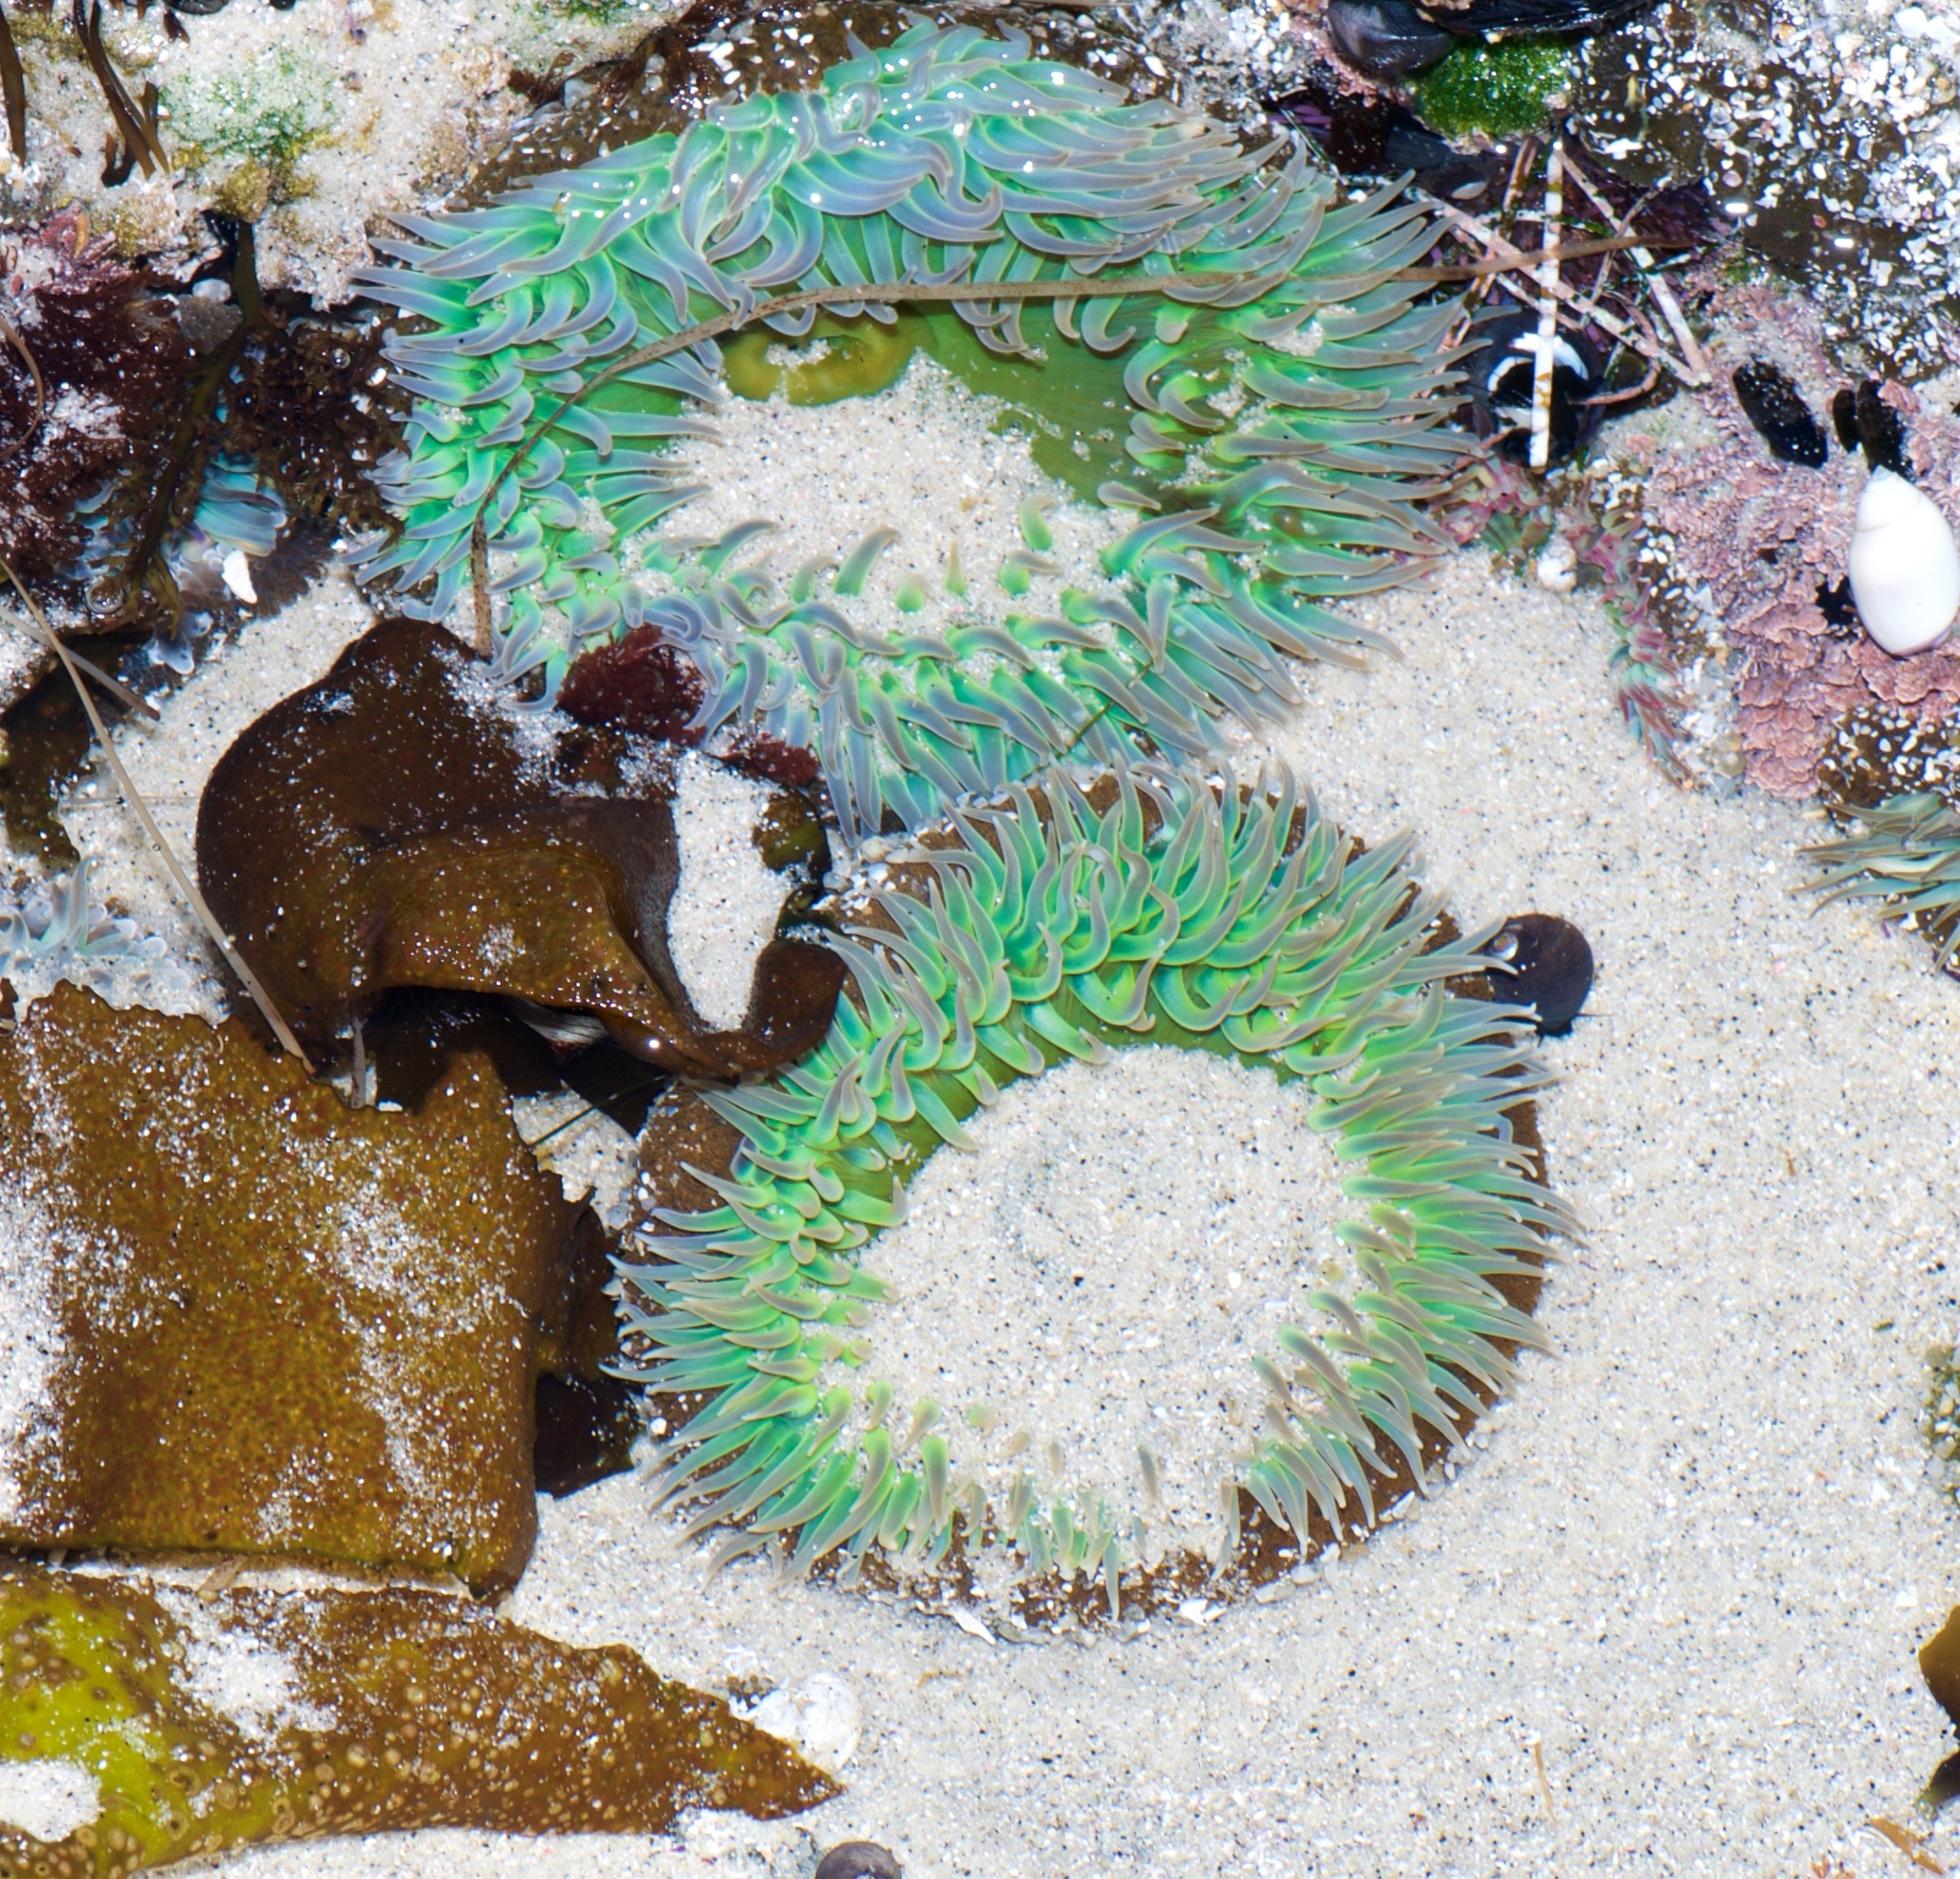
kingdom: Animalia
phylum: Cnidaria
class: Anthozoa
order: Actiniaria
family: Actiniidae
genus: Anthopleura
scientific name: Anthopleura xanthogrammica
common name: Giant green anemone
